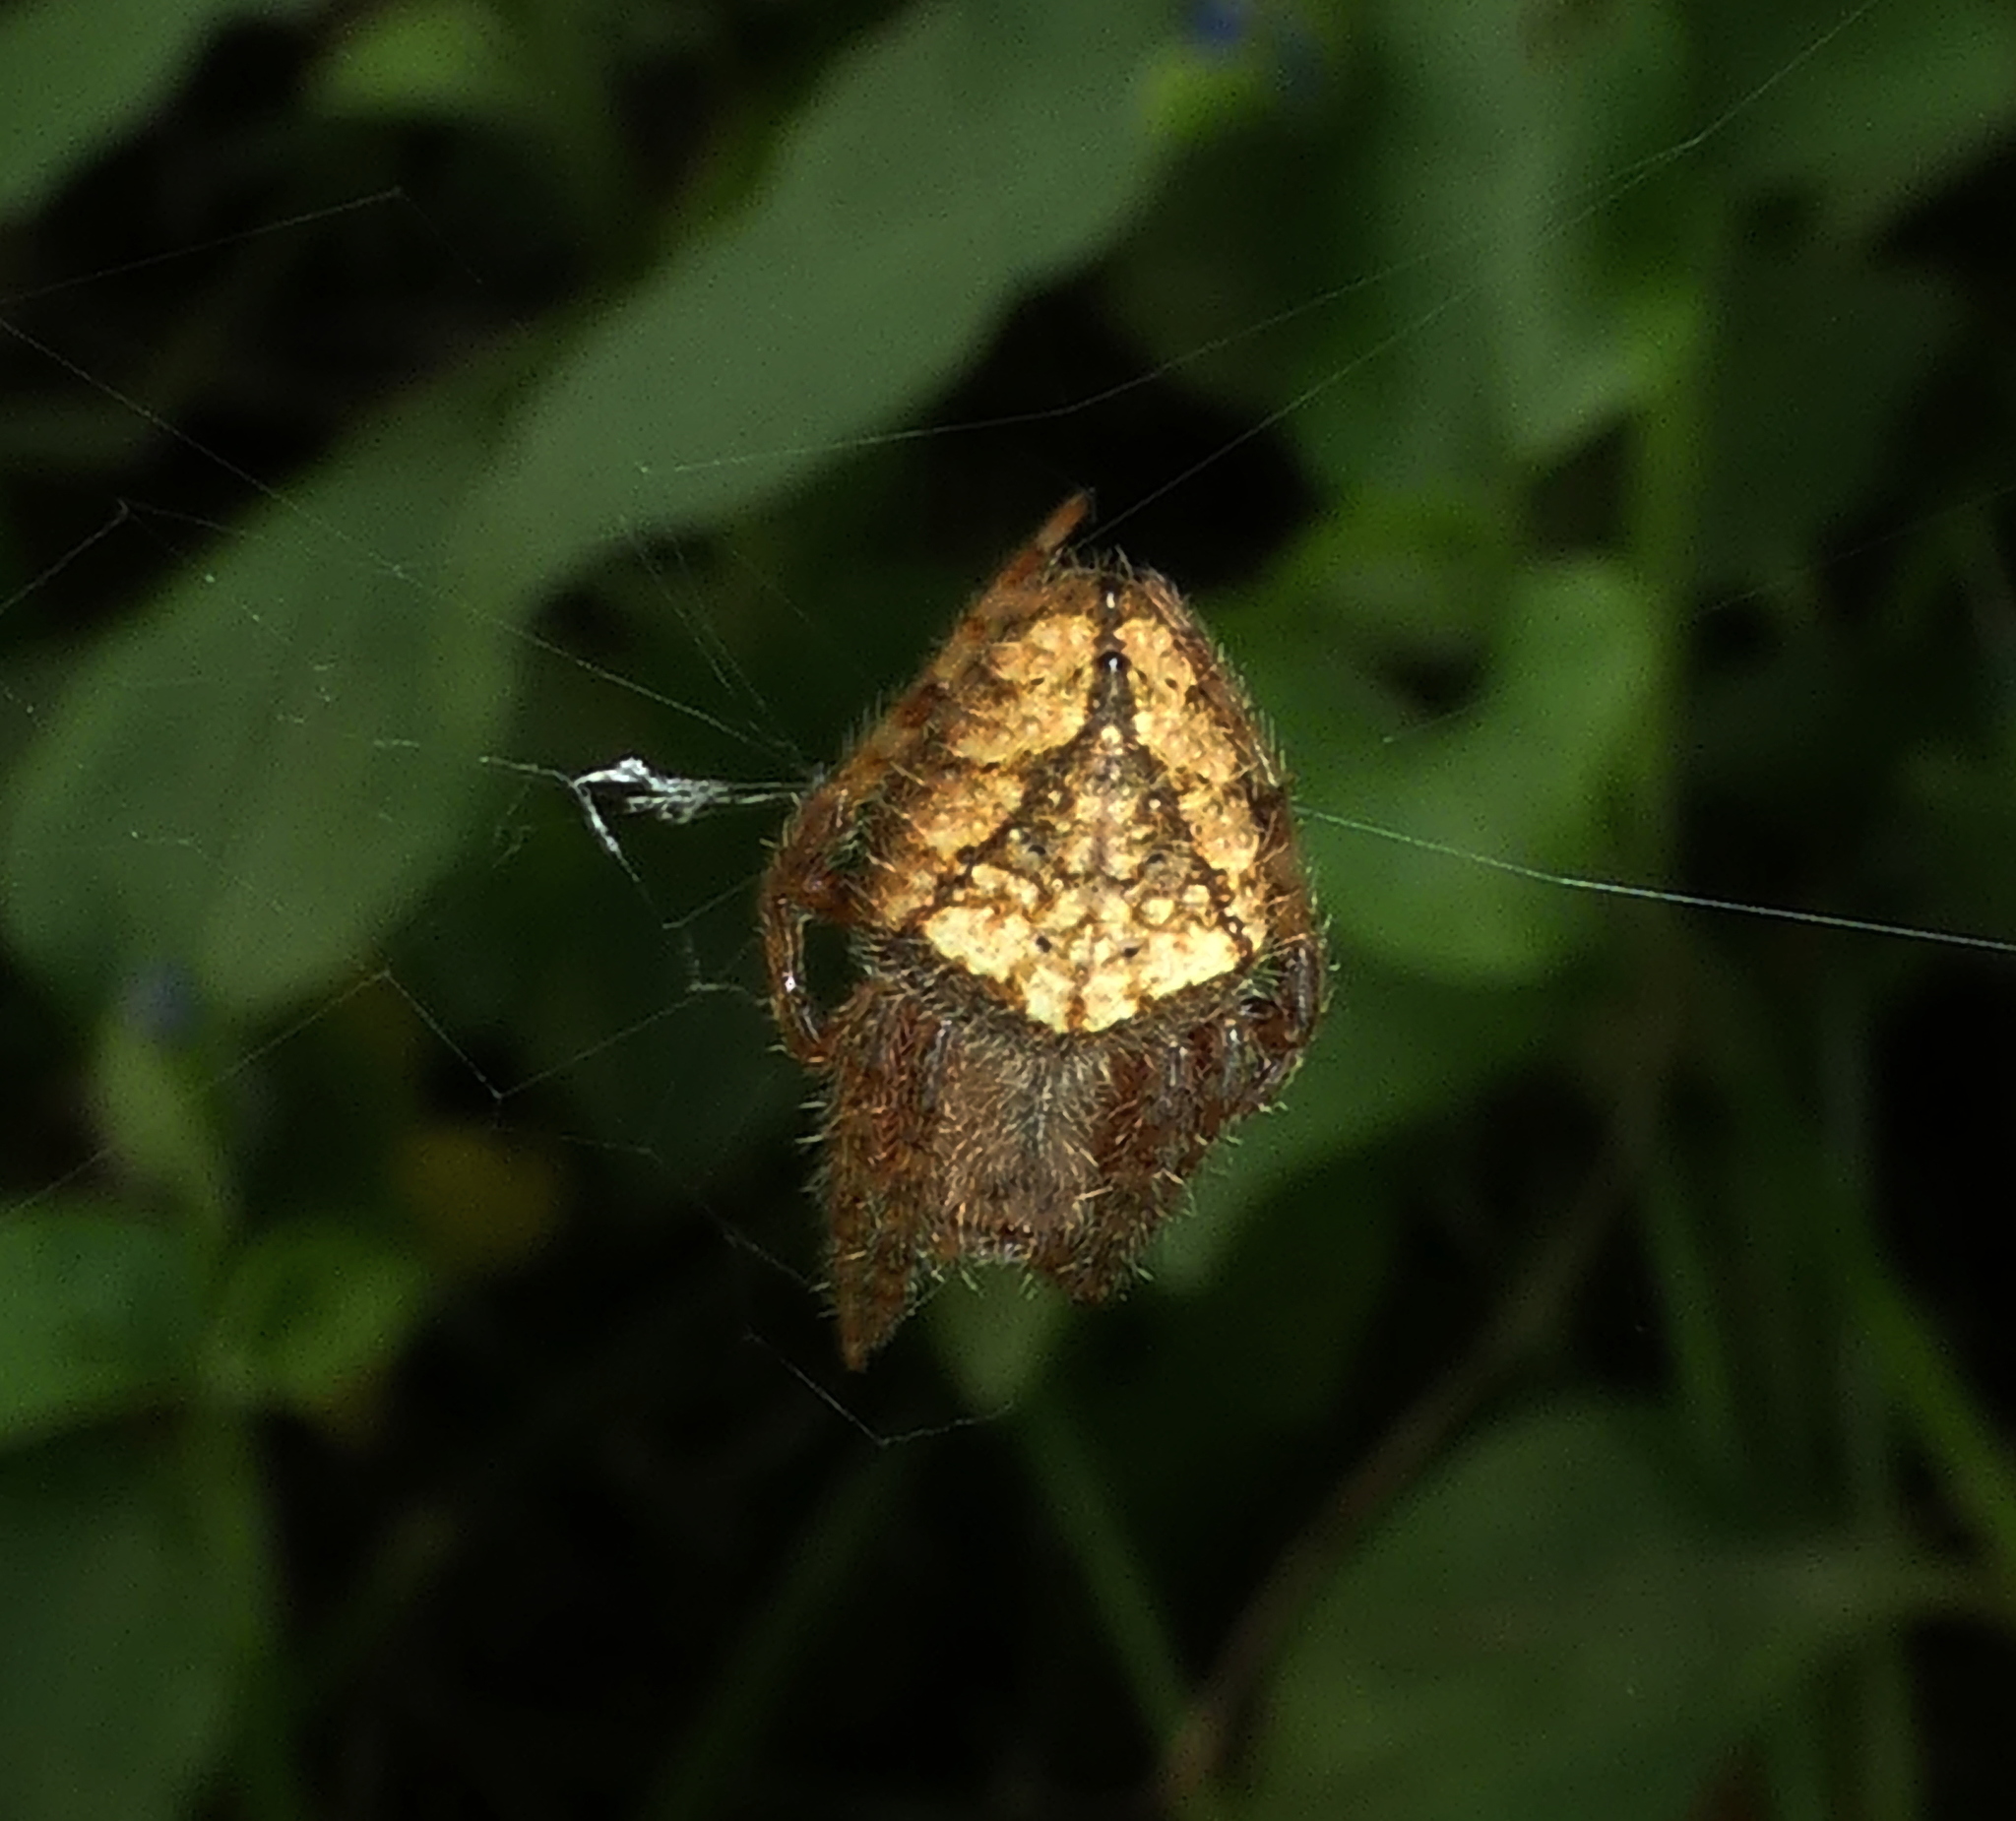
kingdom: Animalia
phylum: Arthropoda
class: Arachnida
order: Araneae
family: Araneidae
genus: Eriophora
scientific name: Eriophora edax
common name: Orb weavers
